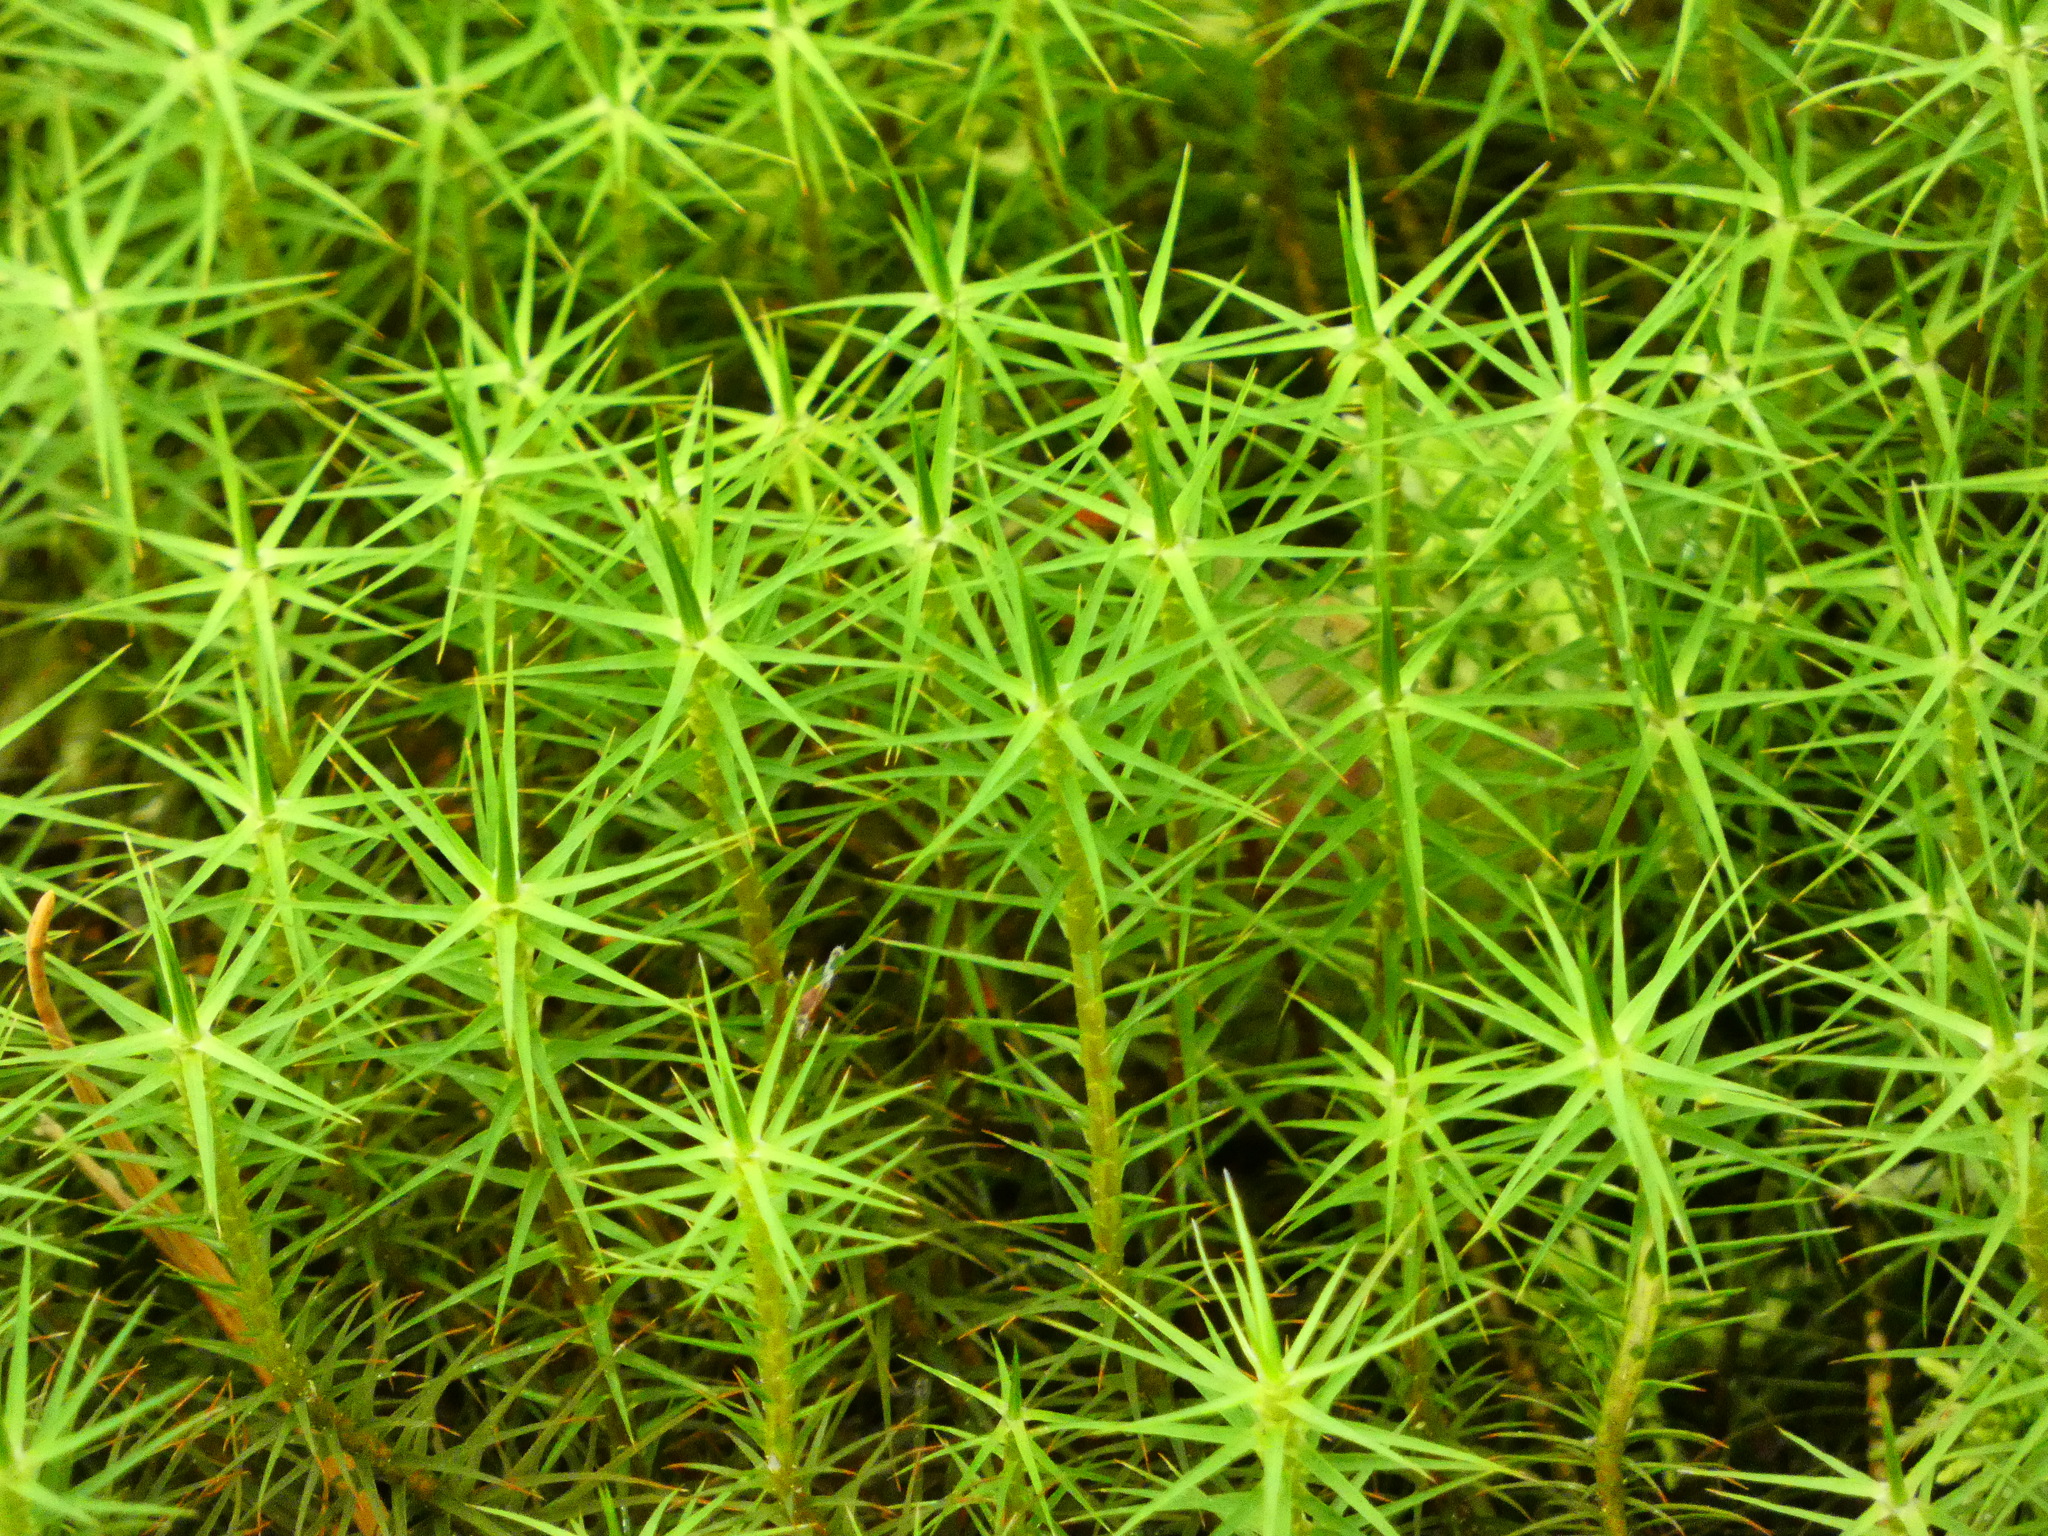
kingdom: Plantae
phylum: Bryophyta
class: Polytrichopsida
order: Polytrichales
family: Polytrichaceae
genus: Polytrichum
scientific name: Polytrichum commune
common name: Common haircap
